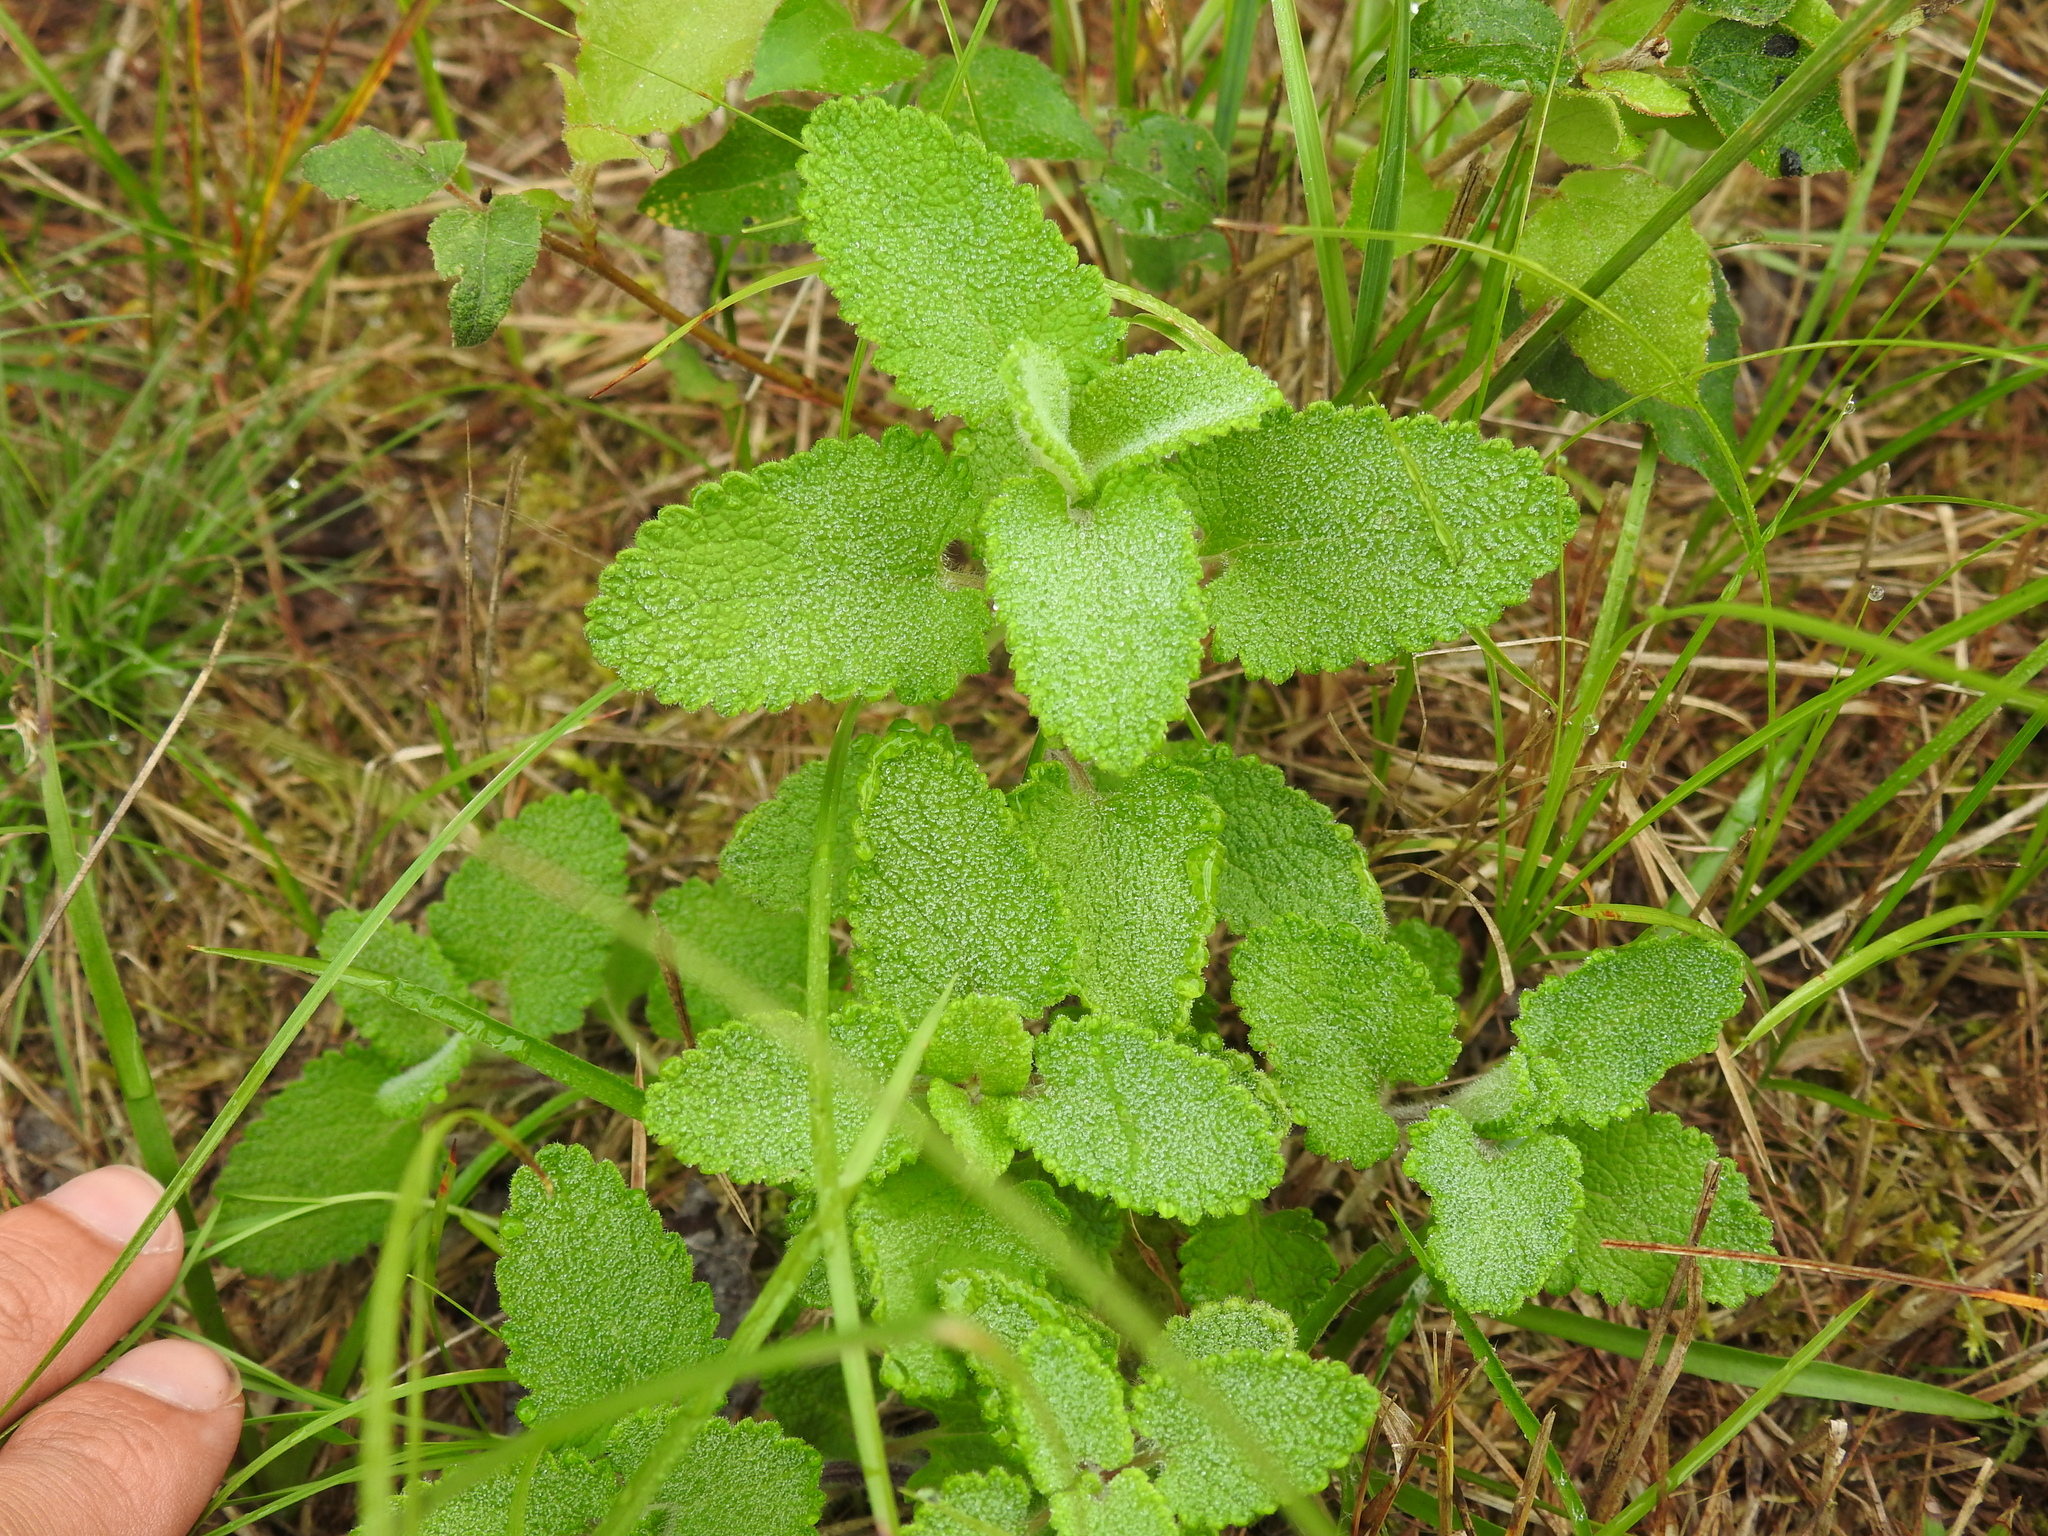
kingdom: Plantae
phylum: Tracheophyta
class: Magnoliopsida
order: Lamiales
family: Lamiaceae
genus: Teucrium
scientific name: Teucrium scorodonia
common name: Woodland germander
